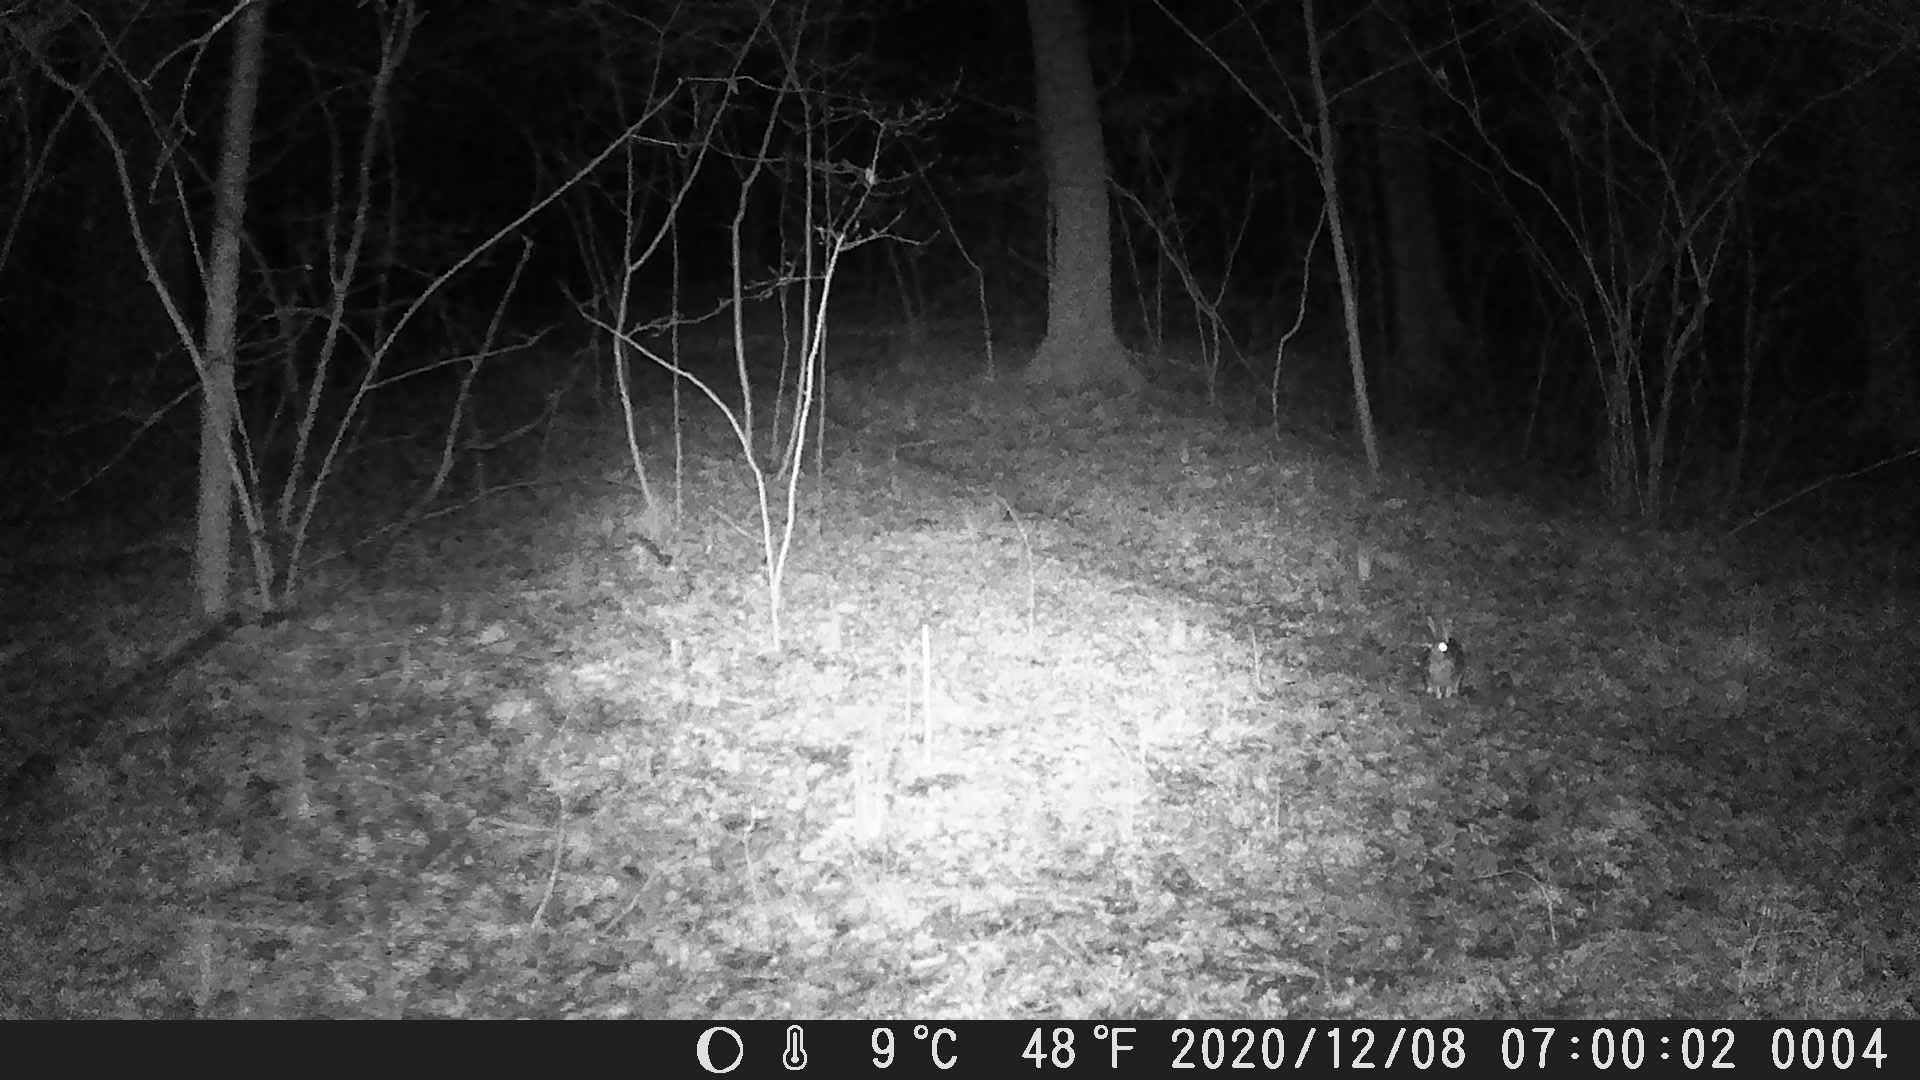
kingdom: Animalia
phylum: Chordata
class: Mammalia
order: Lagomorpha
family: Leporidae
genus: Sylvilagus
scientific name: Sylvilagus floridanus
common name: Eastern cottontail
